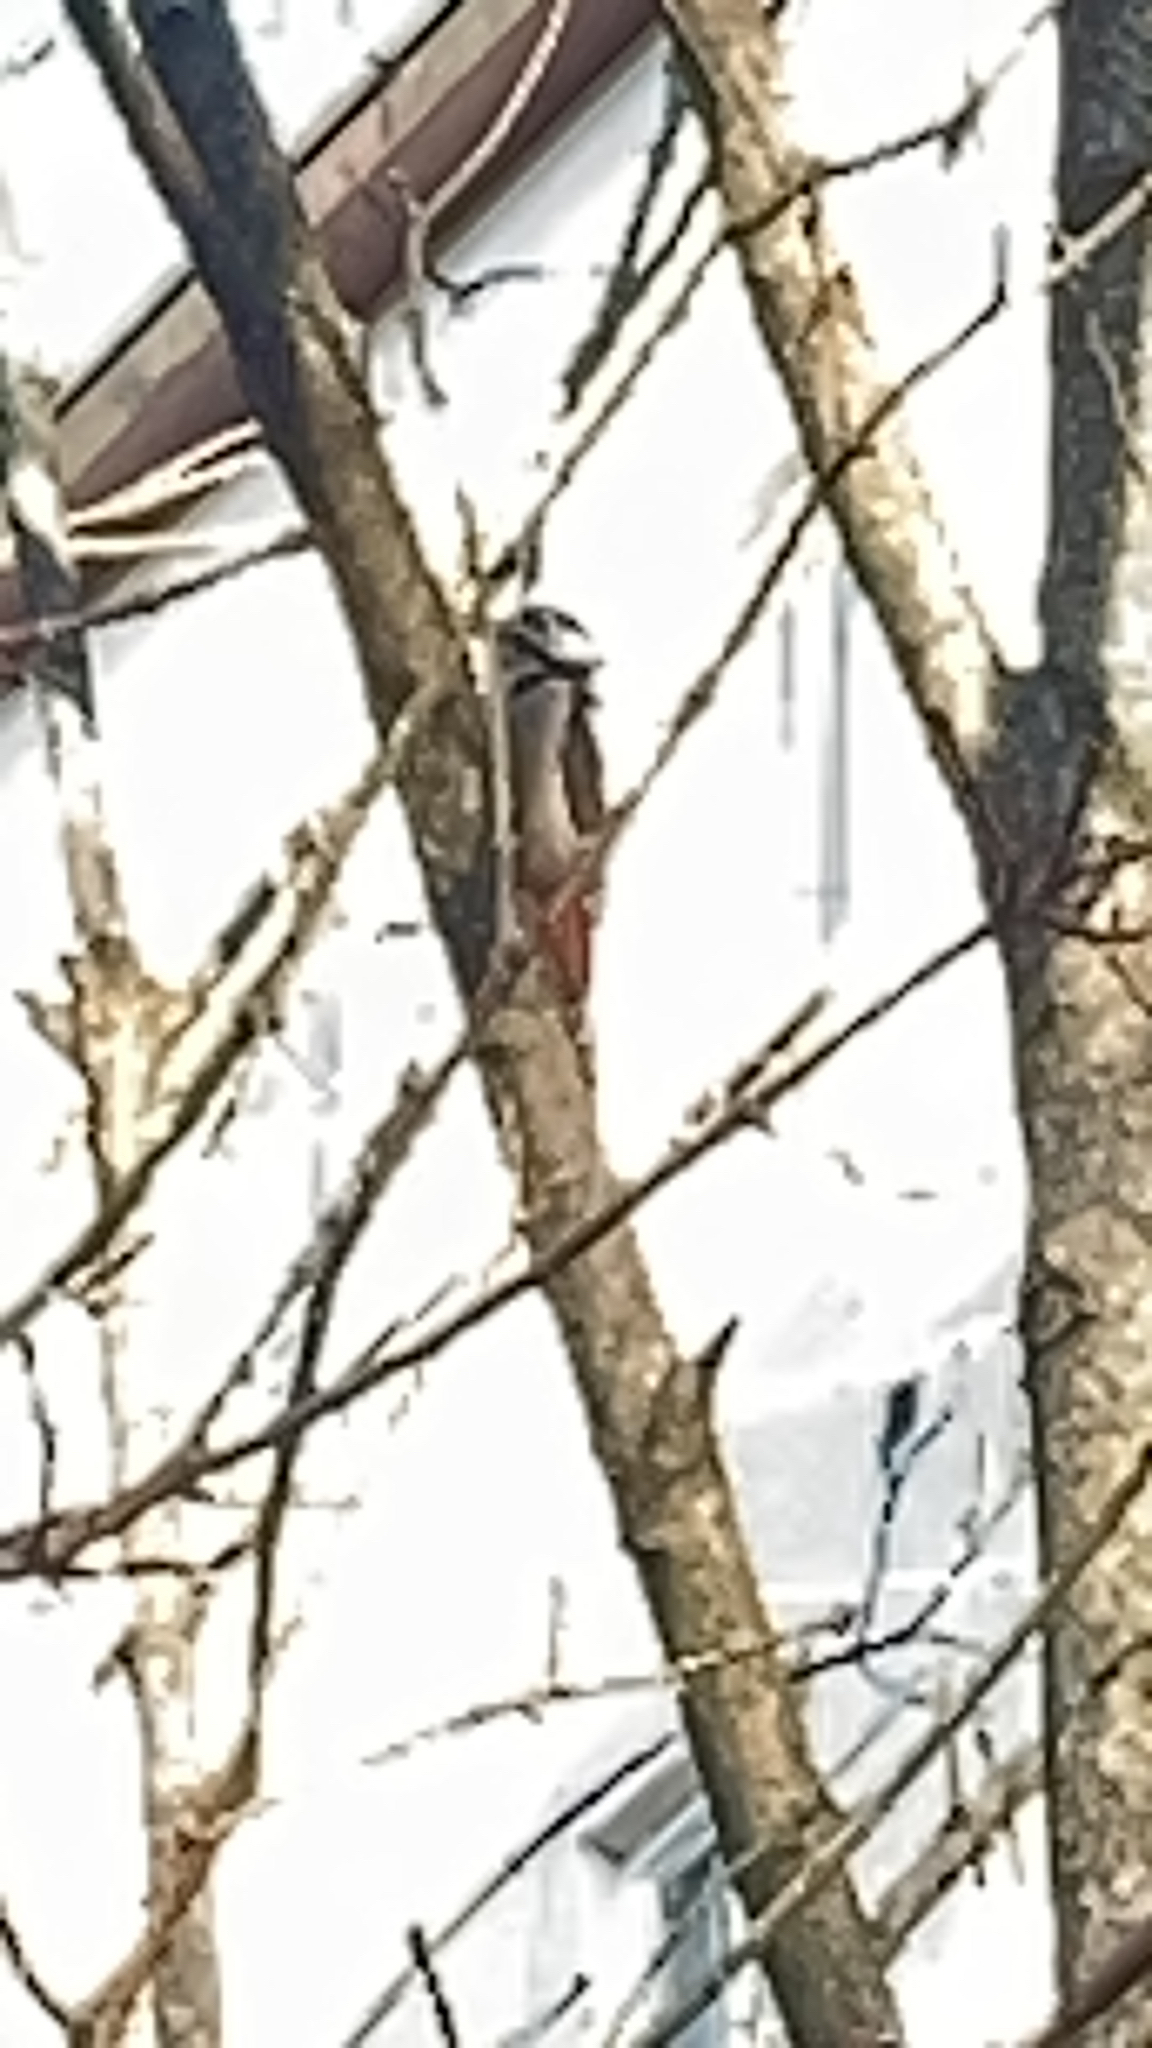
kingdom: Animalia
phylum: Chordata
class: Aves
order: Piciformes
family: Picidae
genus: Dendrocopos
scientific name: Dendrocopos major
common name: Great spotted woodpecker
